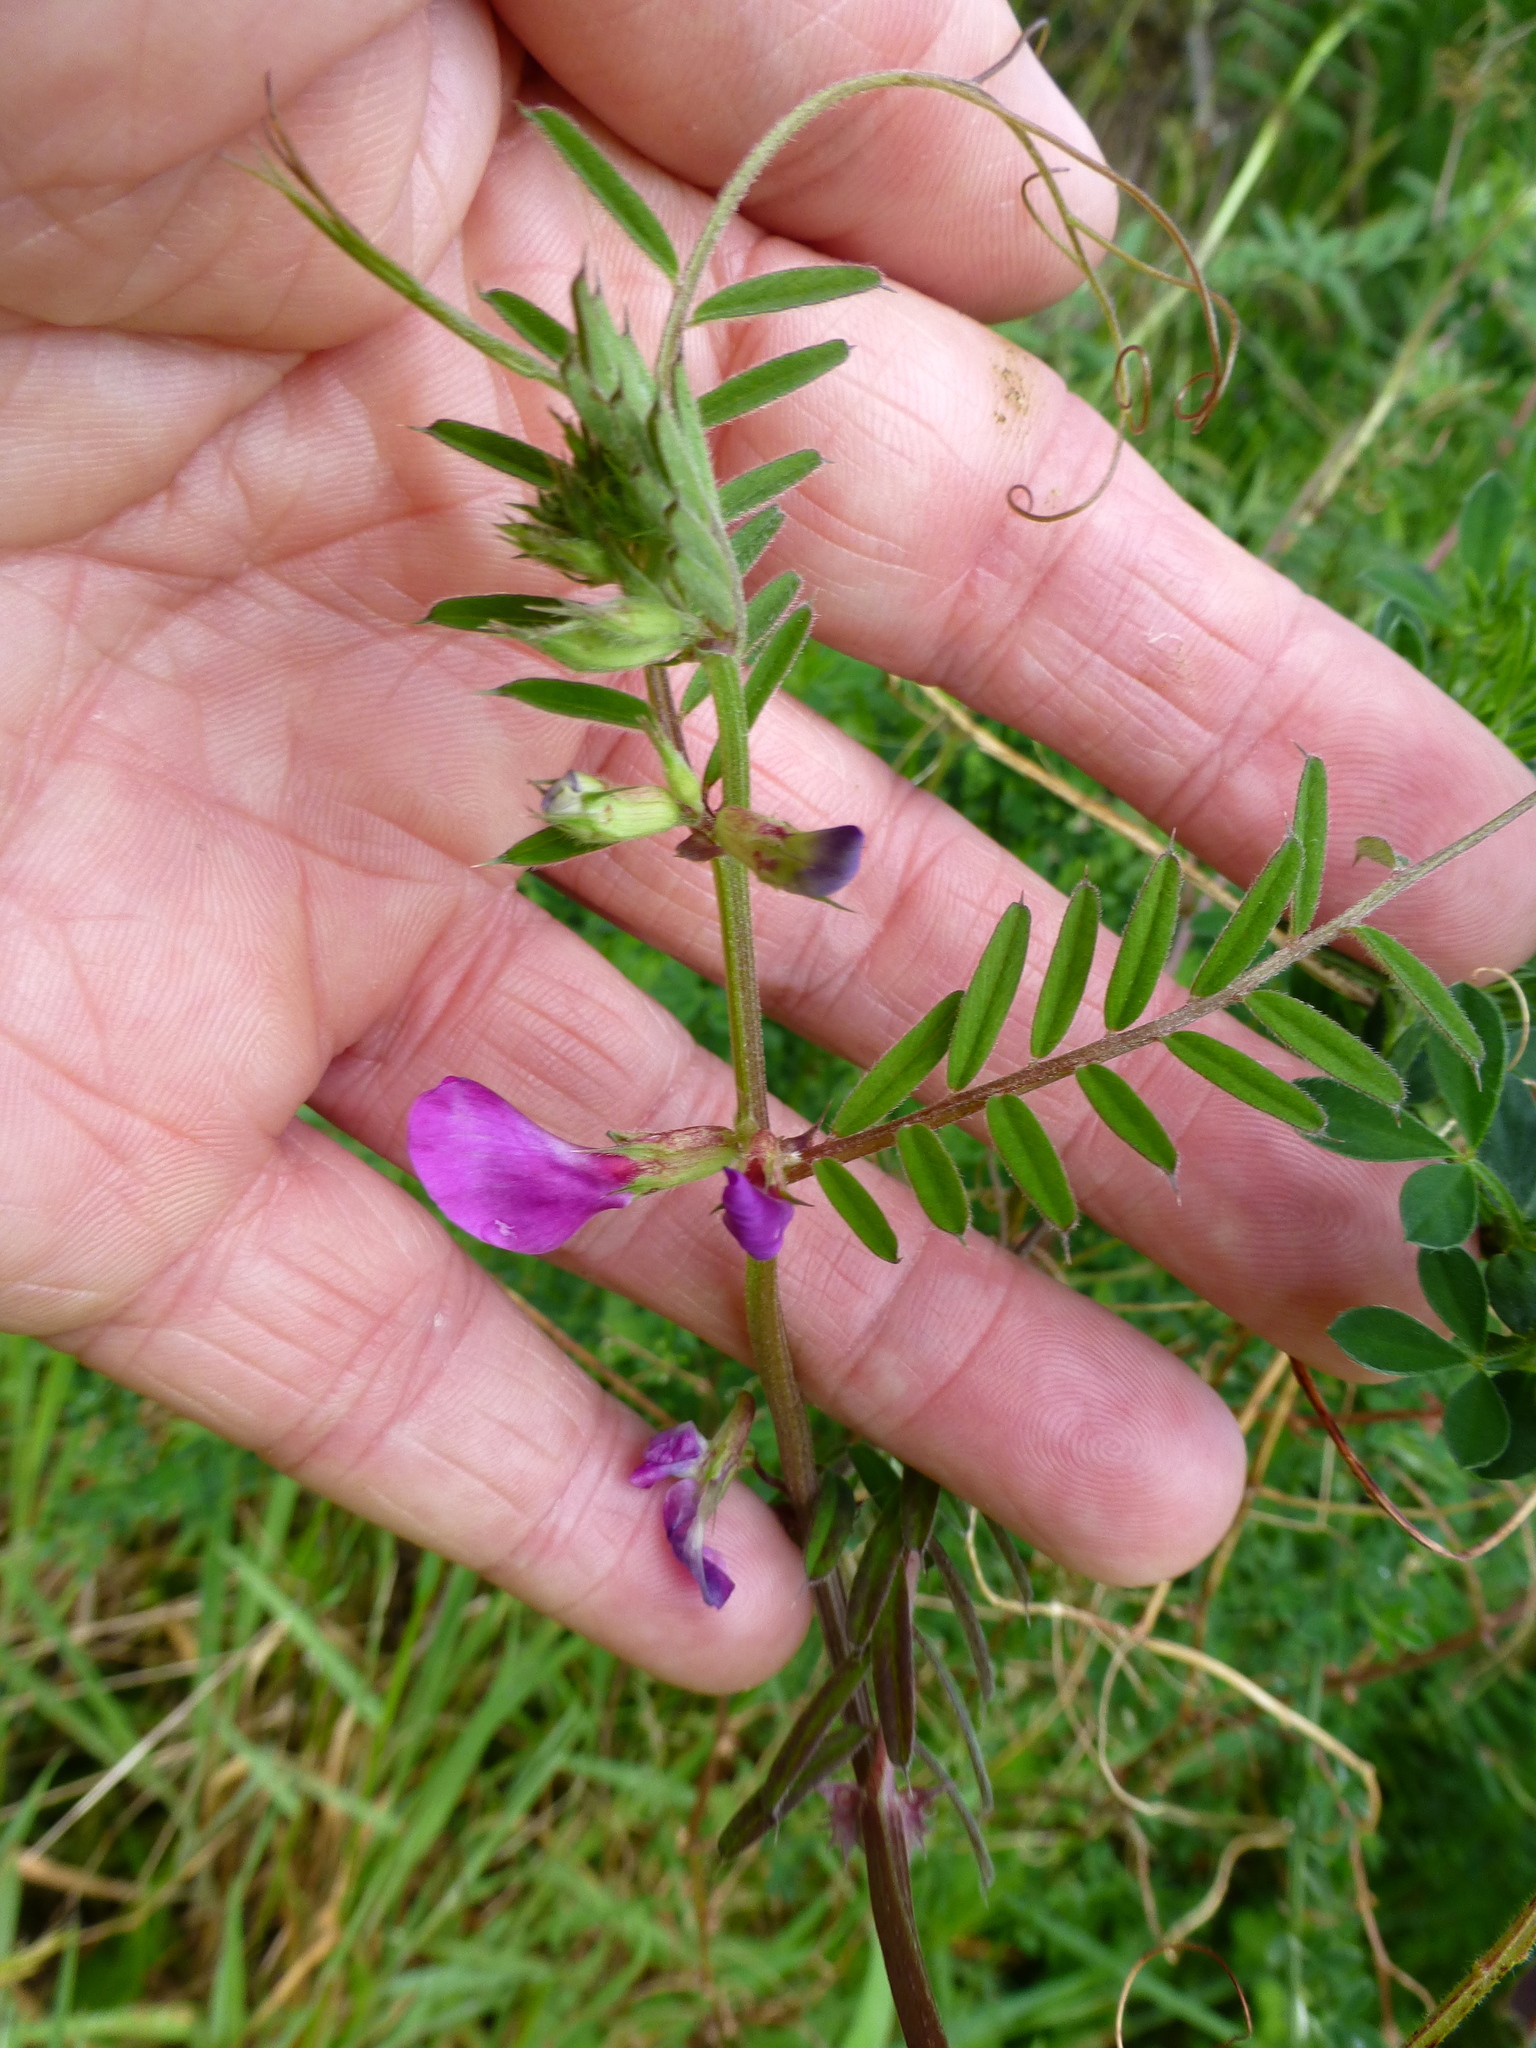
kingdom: Plantae
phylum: Tracheophyta
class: Magnoliopsida
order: Fabales
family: Fabaceae
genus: Vicia
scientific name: Vicia sativa
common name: Garden vetch
